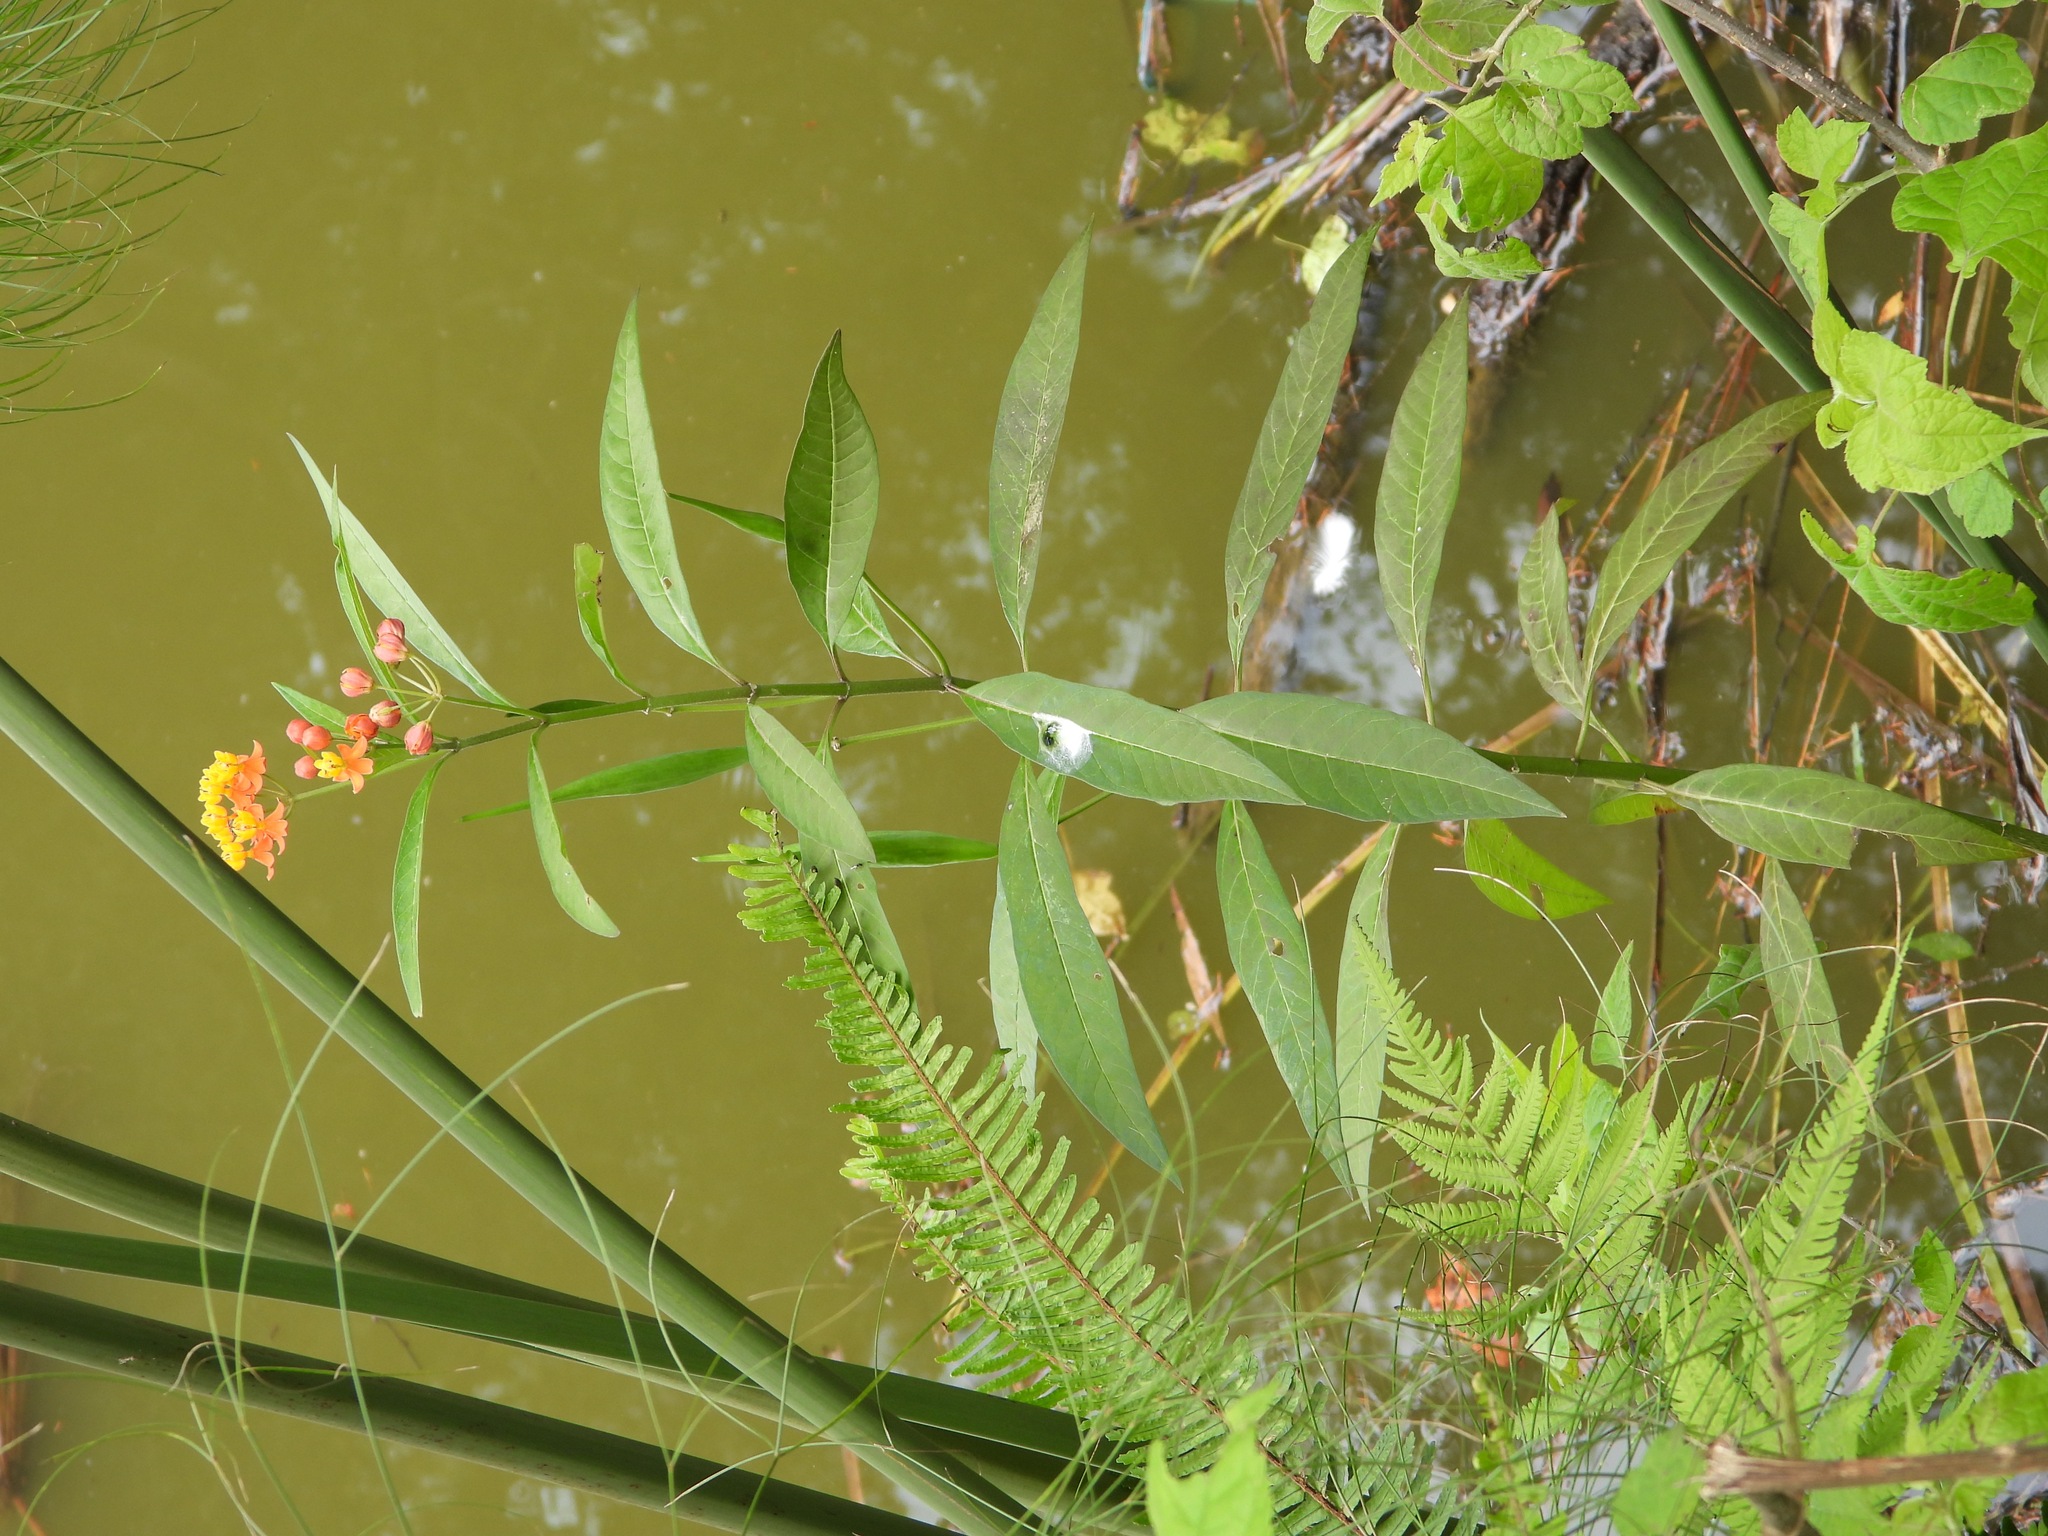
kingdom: Plantae
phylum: Tracheophyta
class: Magnoliopsida
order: Gentianales
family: Apocynaceae
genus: Asclepias
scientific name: Asclepias curassavica
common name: Bloodflower
